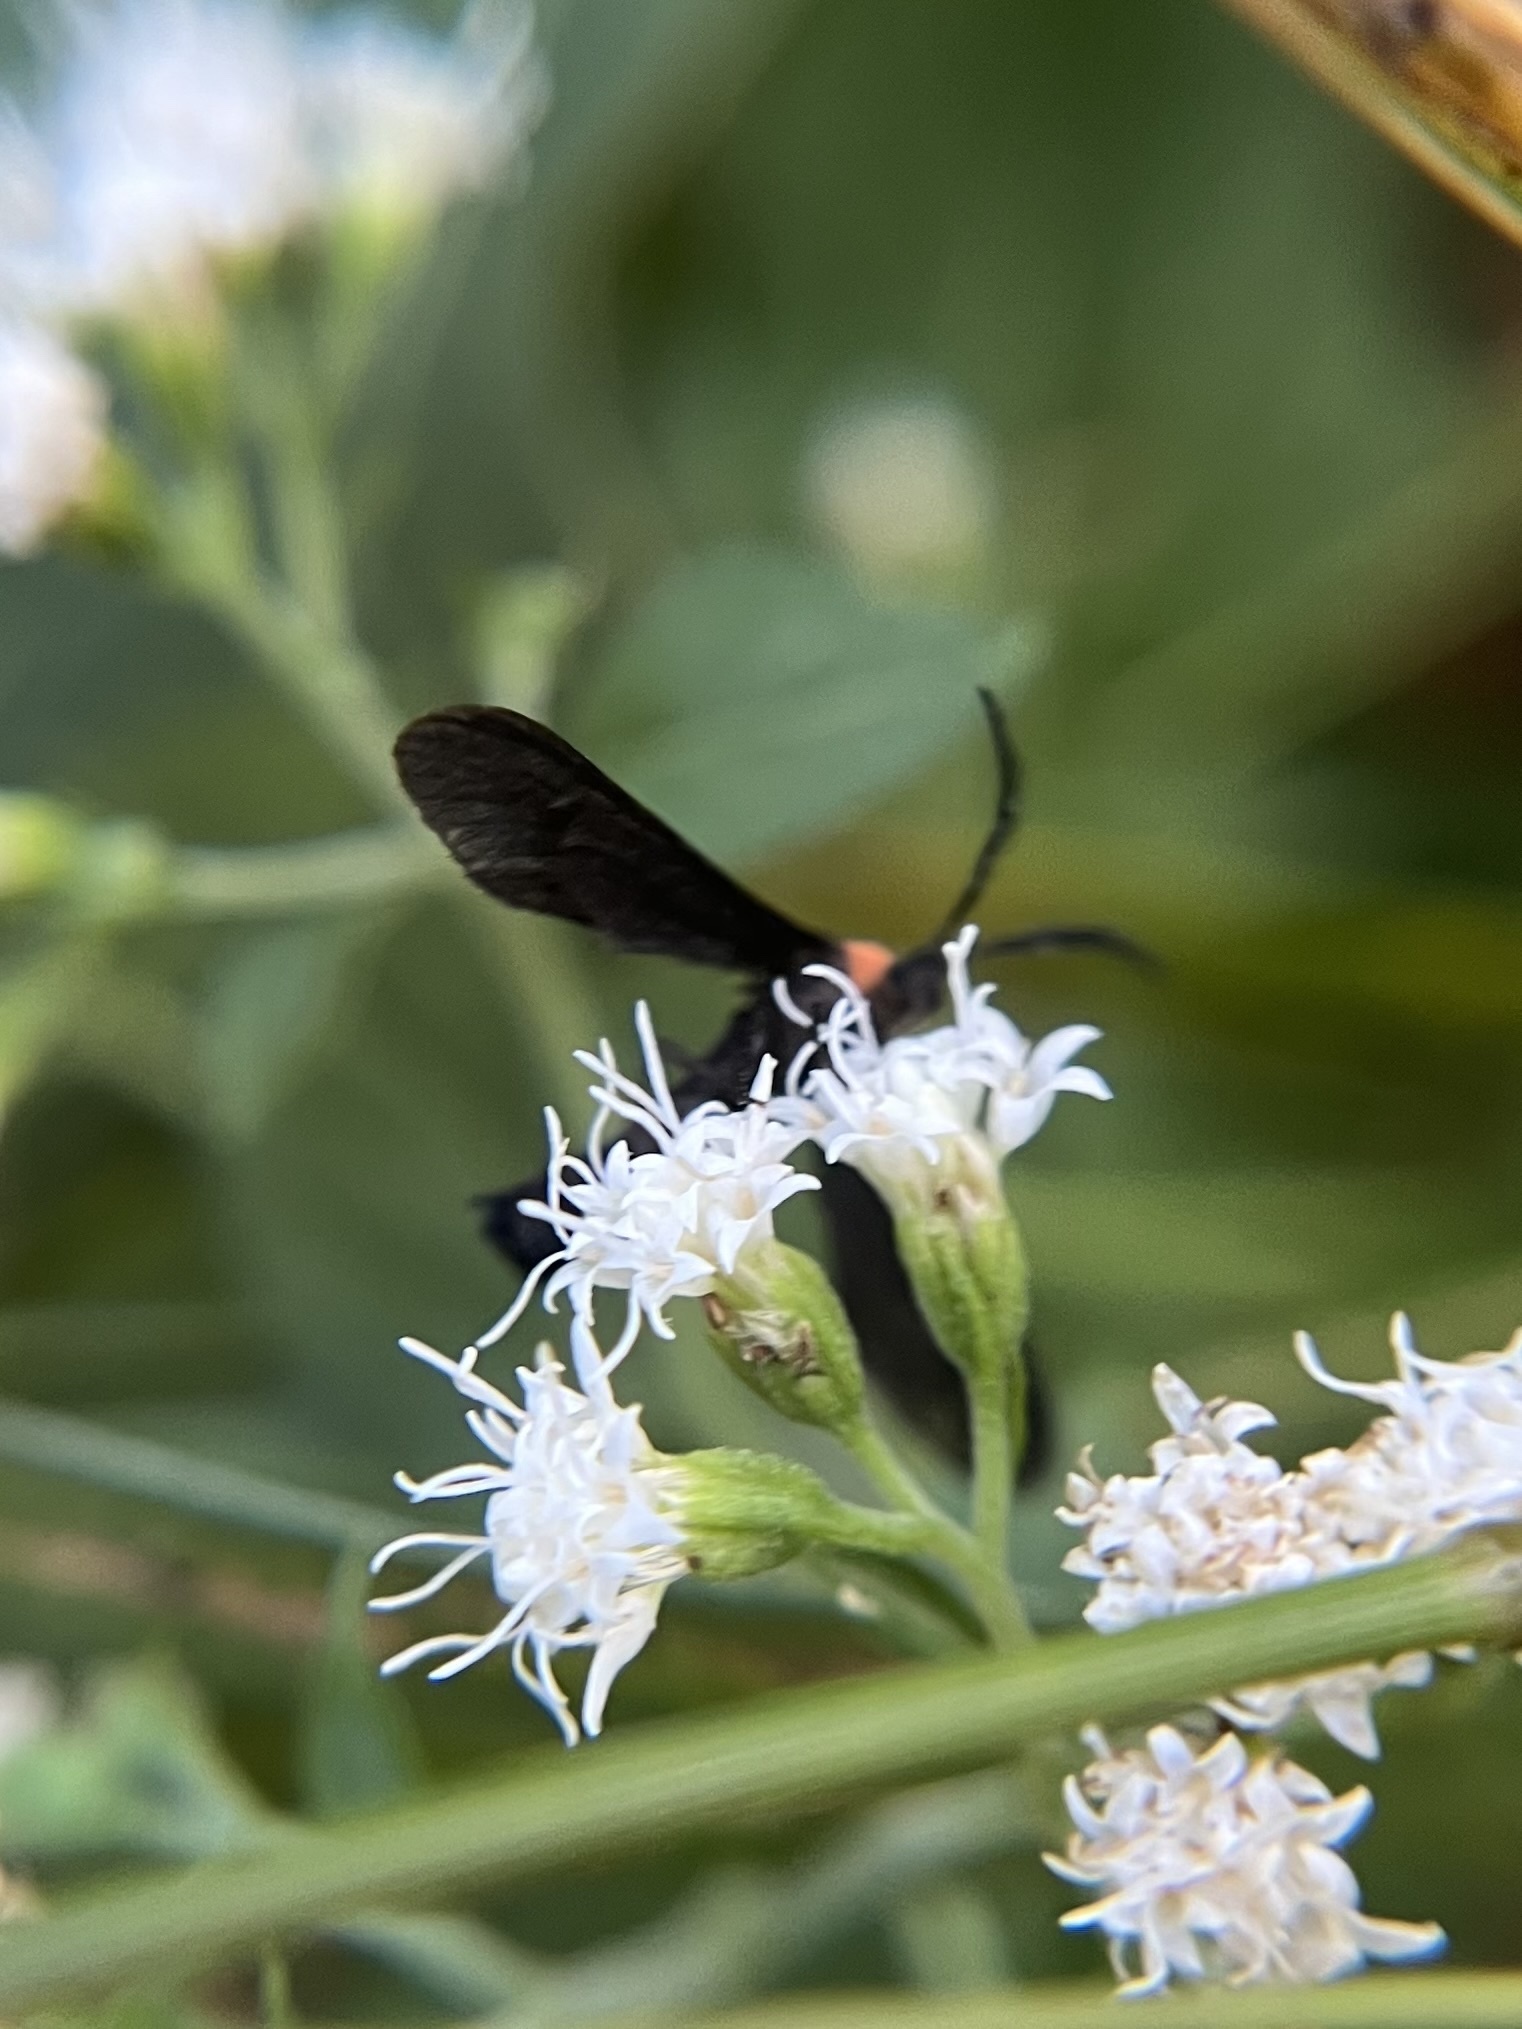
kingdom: Animalia
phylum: Arthropoda
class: Insecta
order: Lepidoptera
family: Zygaenidae
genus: Harrisina
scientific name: Harrisina americana
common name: Grapeleaf skeletonizer moth
